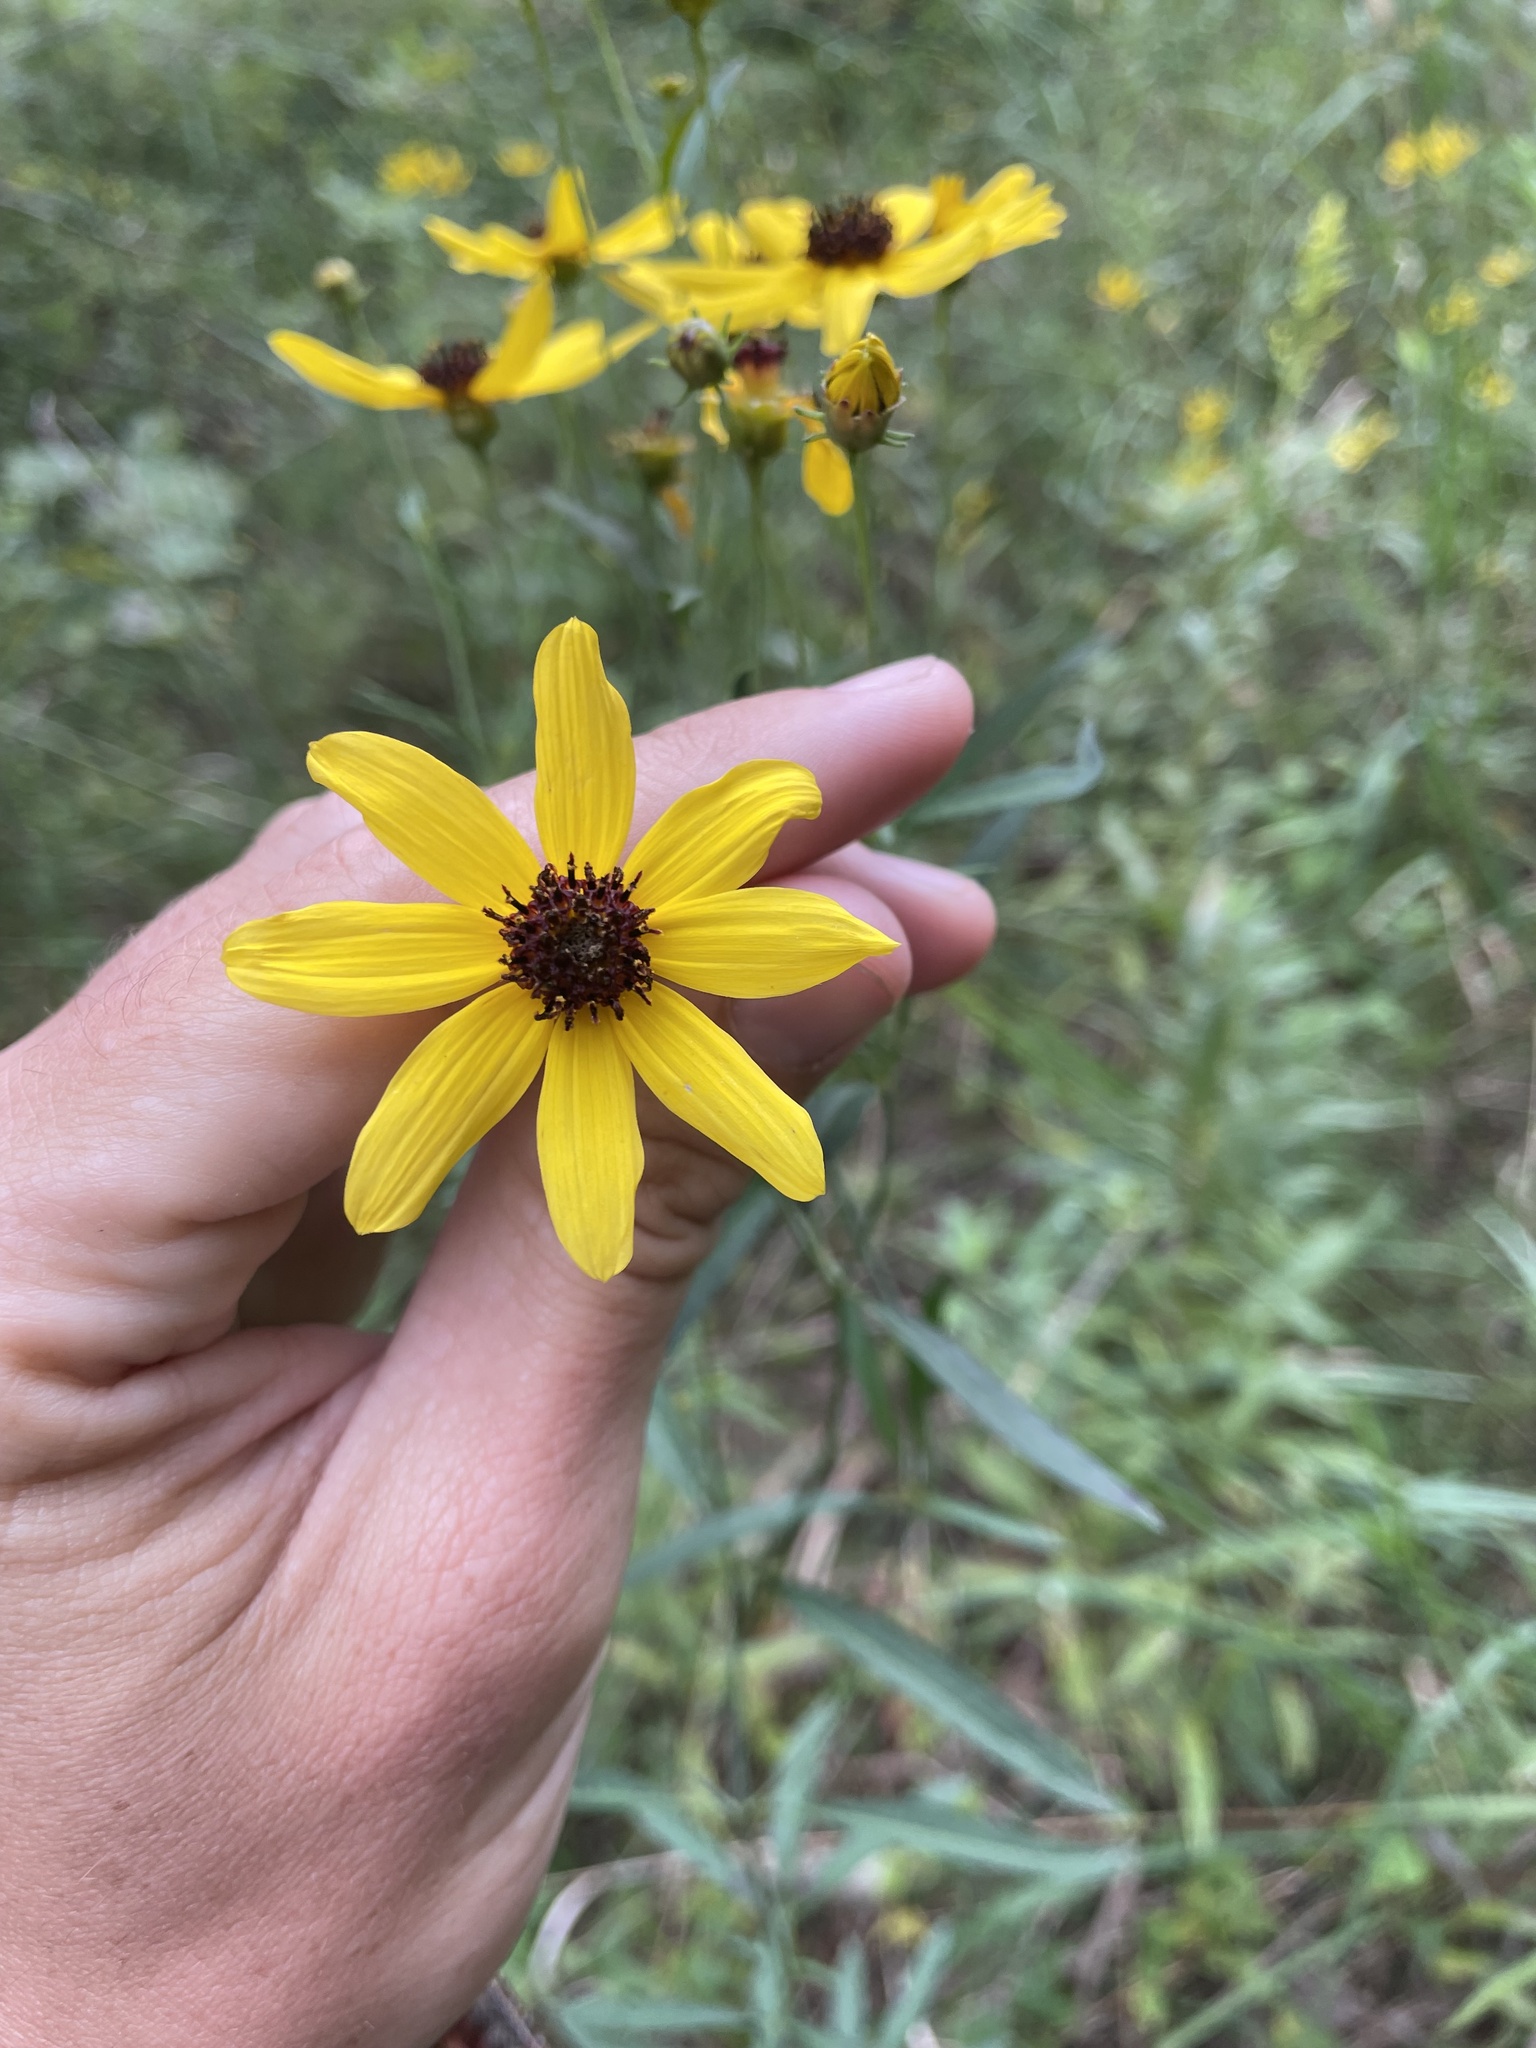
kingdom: Plantae
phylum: Tracheophyta
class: Magnoliopsida
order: Asterales
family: Asteraceae
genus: Coreopsis
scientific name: Coreopsis tripteris
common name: Tall coreopsis
